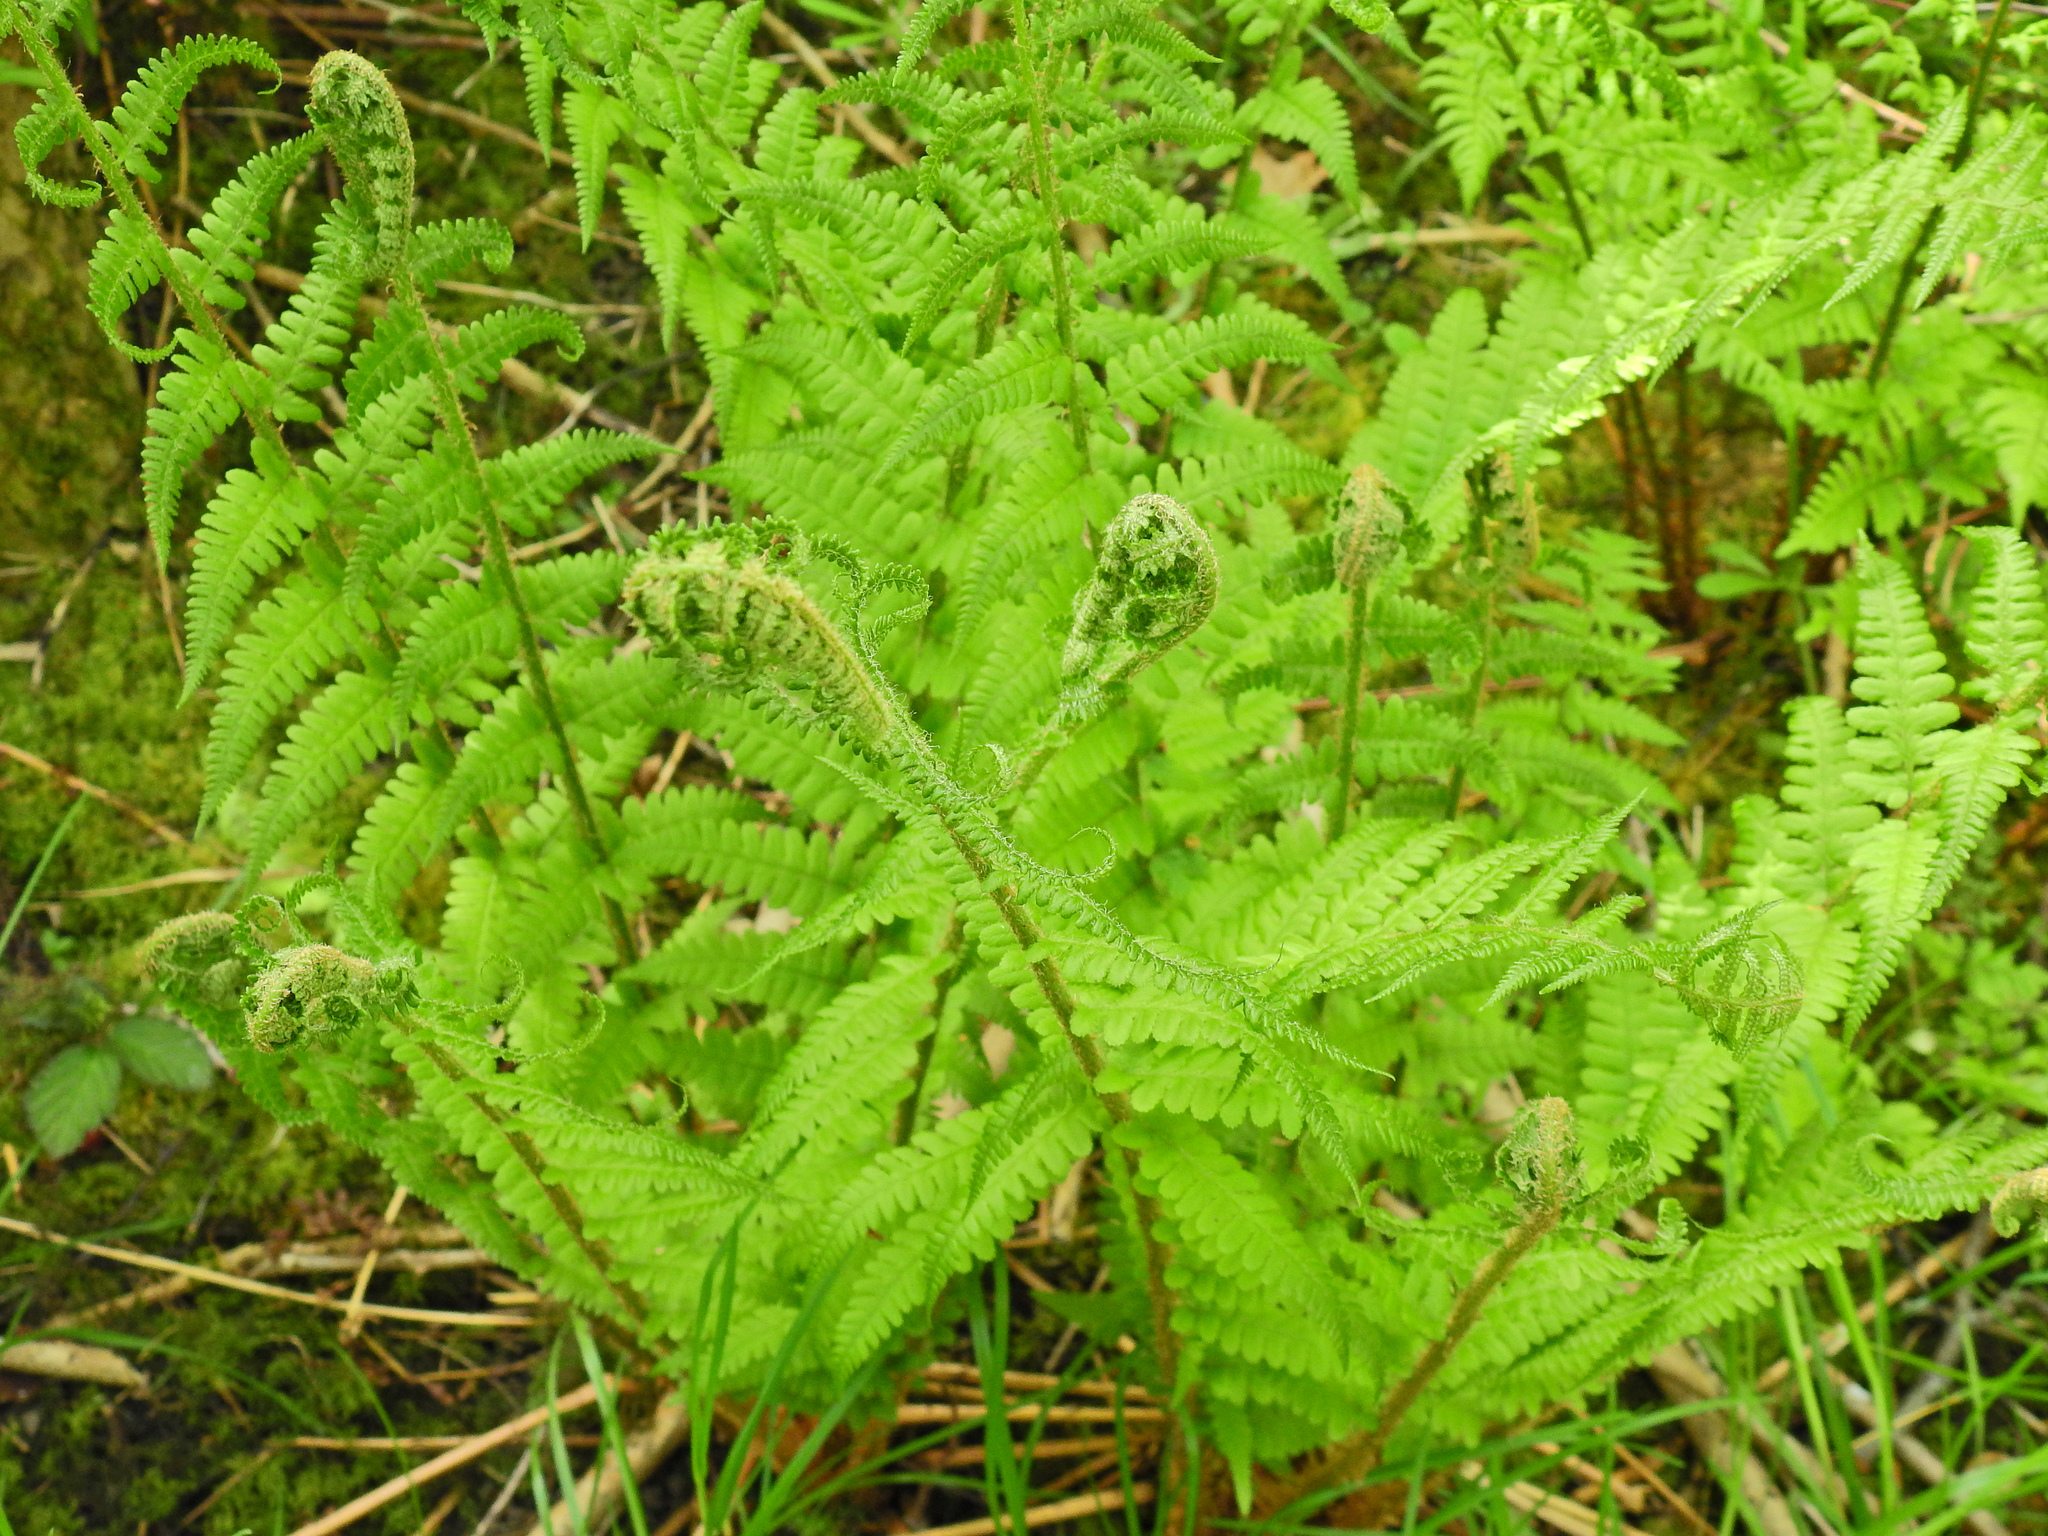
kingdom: Plantae
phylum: Tracheophyta
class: Polypodiopsida
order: Polypodiales
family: Dryopteridaceae
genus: Dryopteris
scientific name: Dryopteris filix-mas
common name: Male fern
